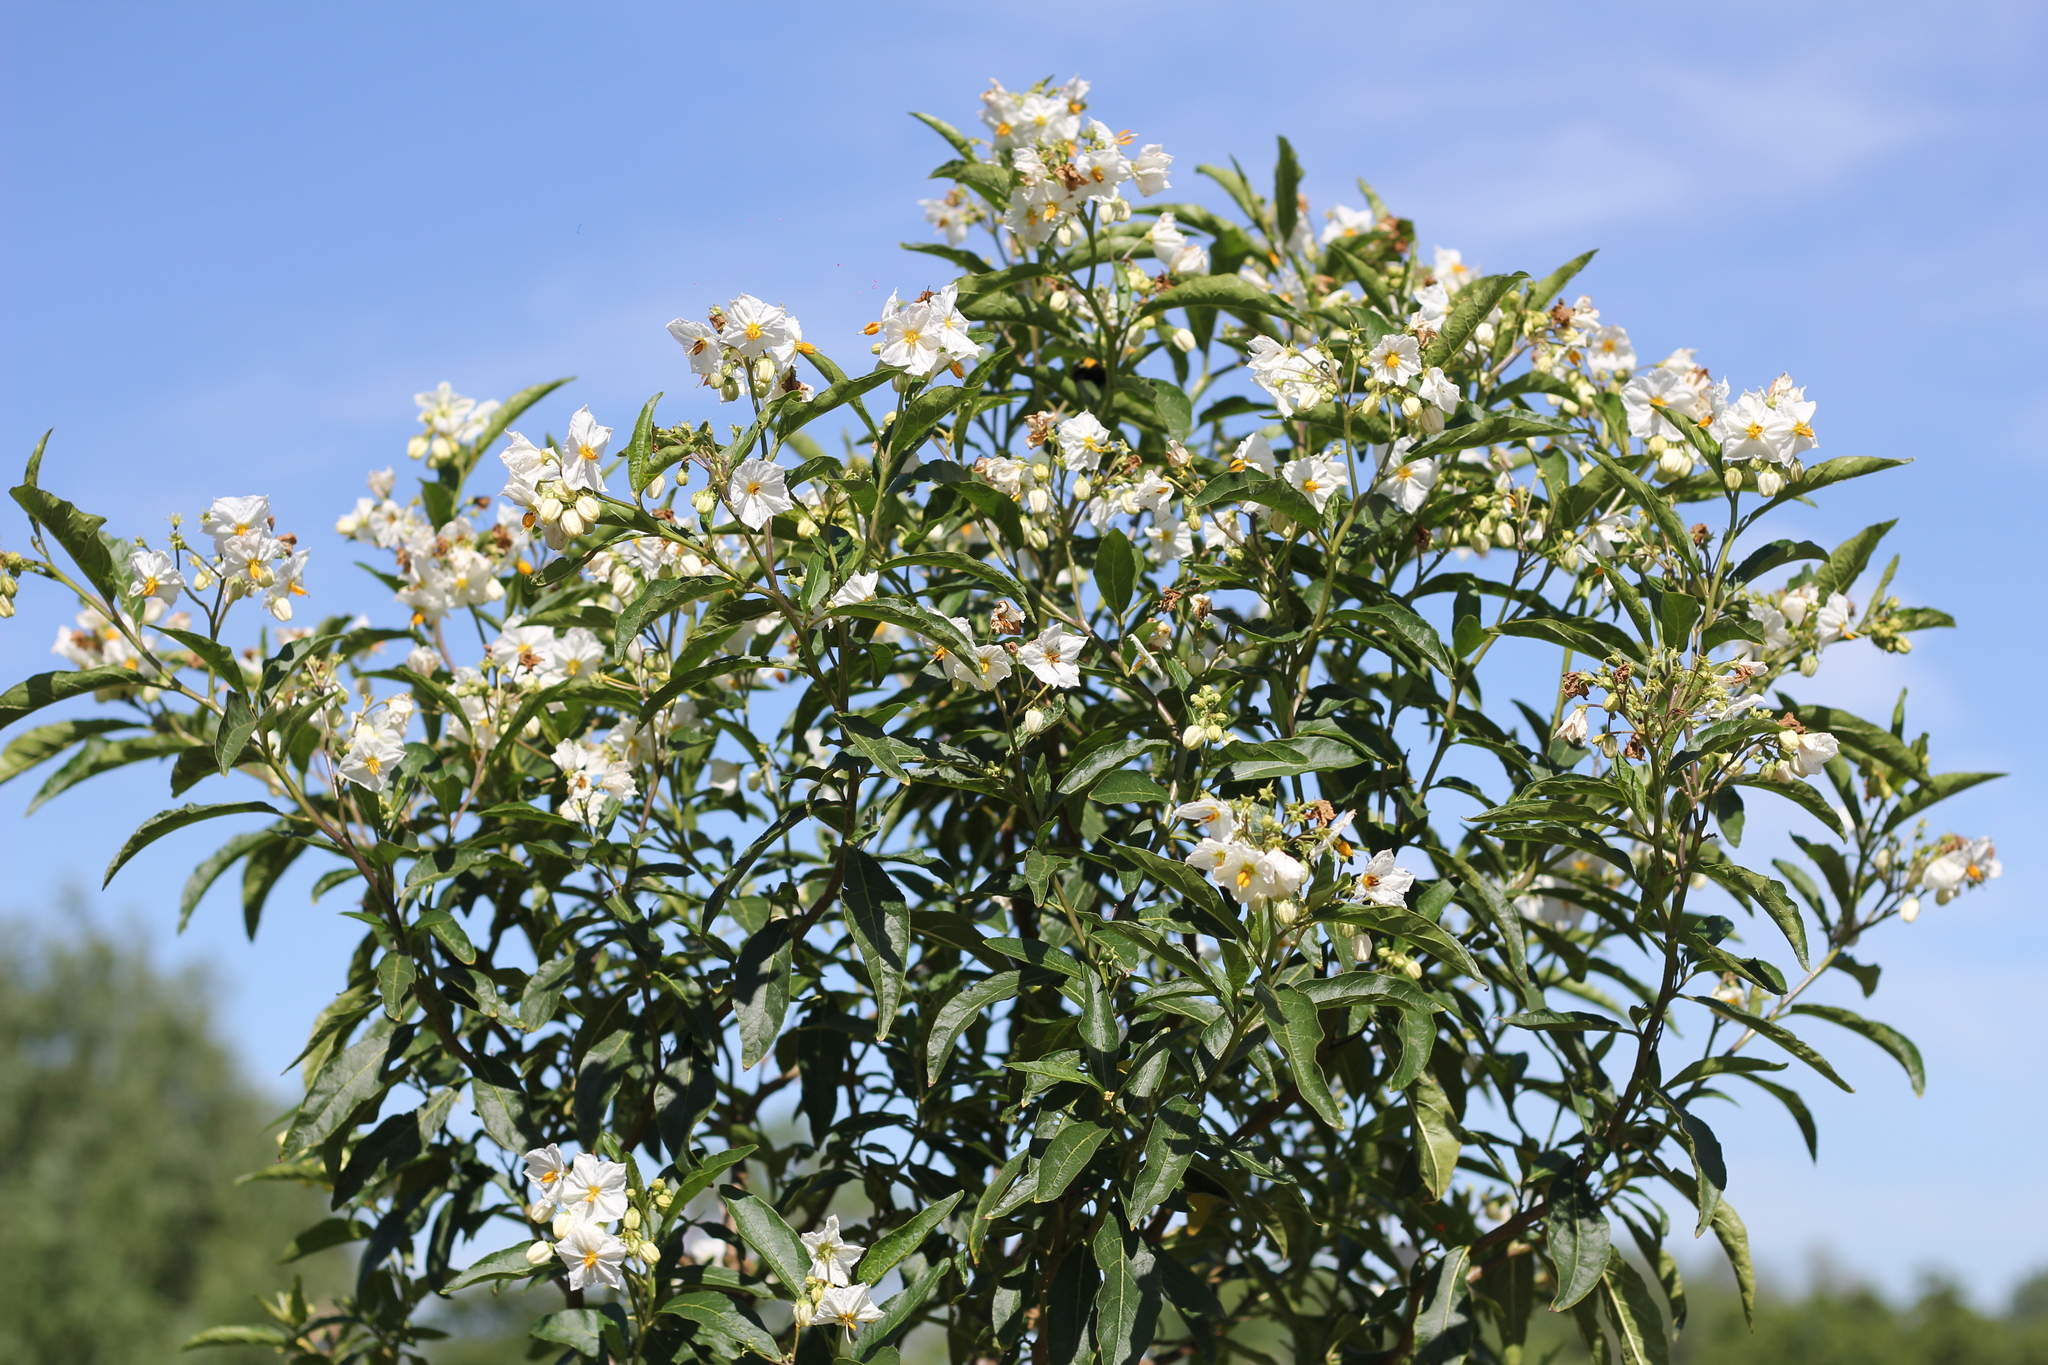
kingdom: Plantae
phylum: Tracheophyta
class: Magnoliopsida
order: Solanales
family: Solanaceae
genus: Solanum
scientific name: Solanum bonariense
